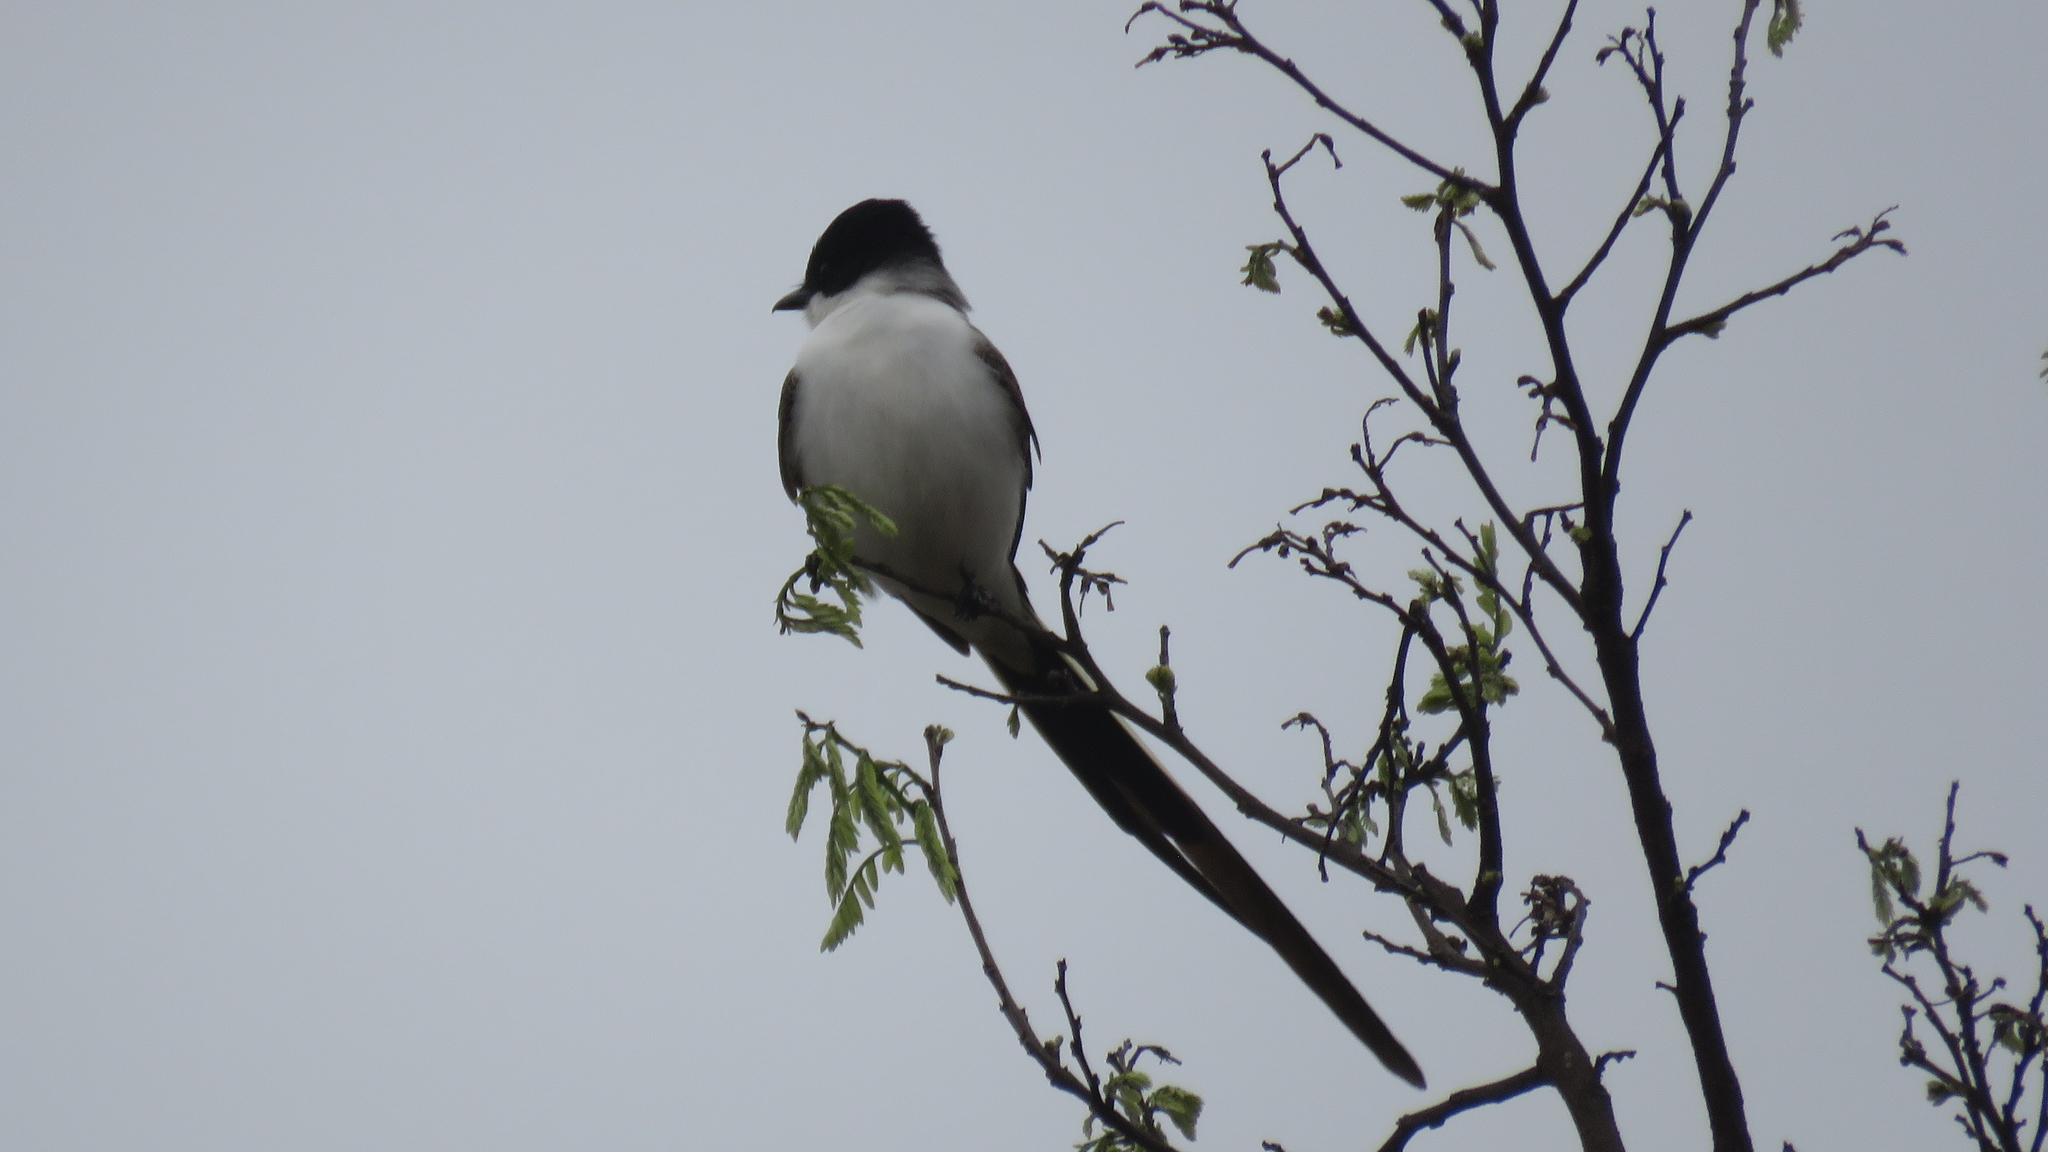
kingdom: Animalia
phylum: Chordata
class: Aves
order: Passeriformes
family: Tyrannidae
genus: Tyrannus
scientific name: Tyrannus savana
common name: Fork-tailed flycatcher
